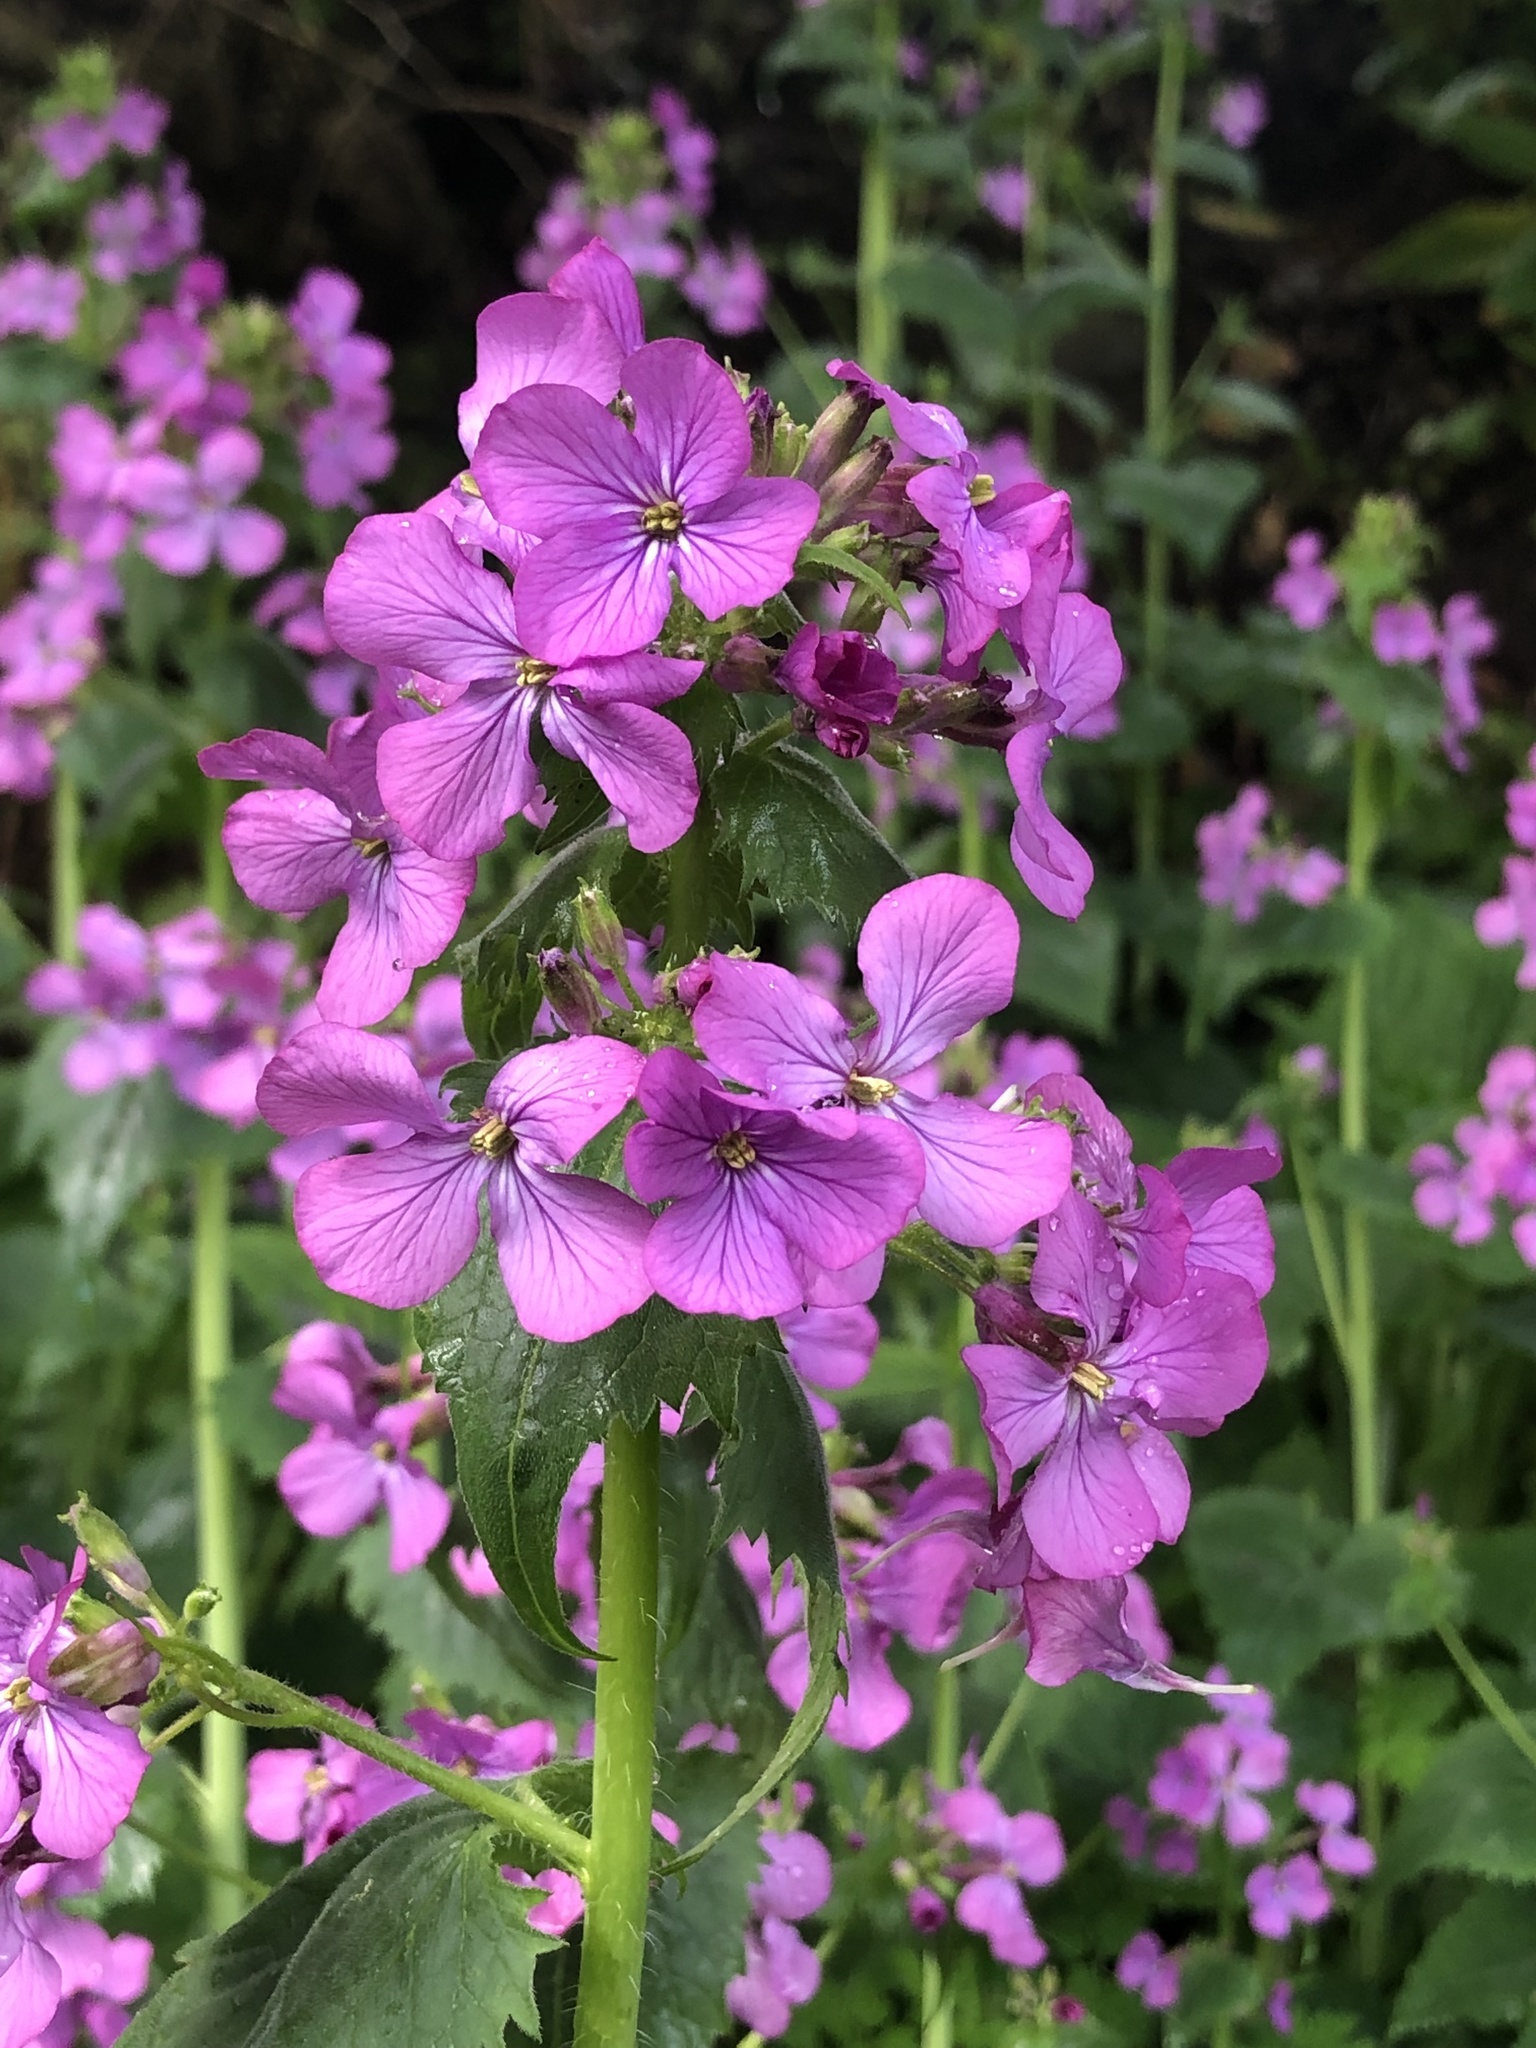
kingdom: Plantae
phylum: Tracheophyta
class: Magnoliopsida
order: Brassicales
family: Brassicaceae
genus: Lunaria
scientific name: Lunaria annua
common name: Honesty
